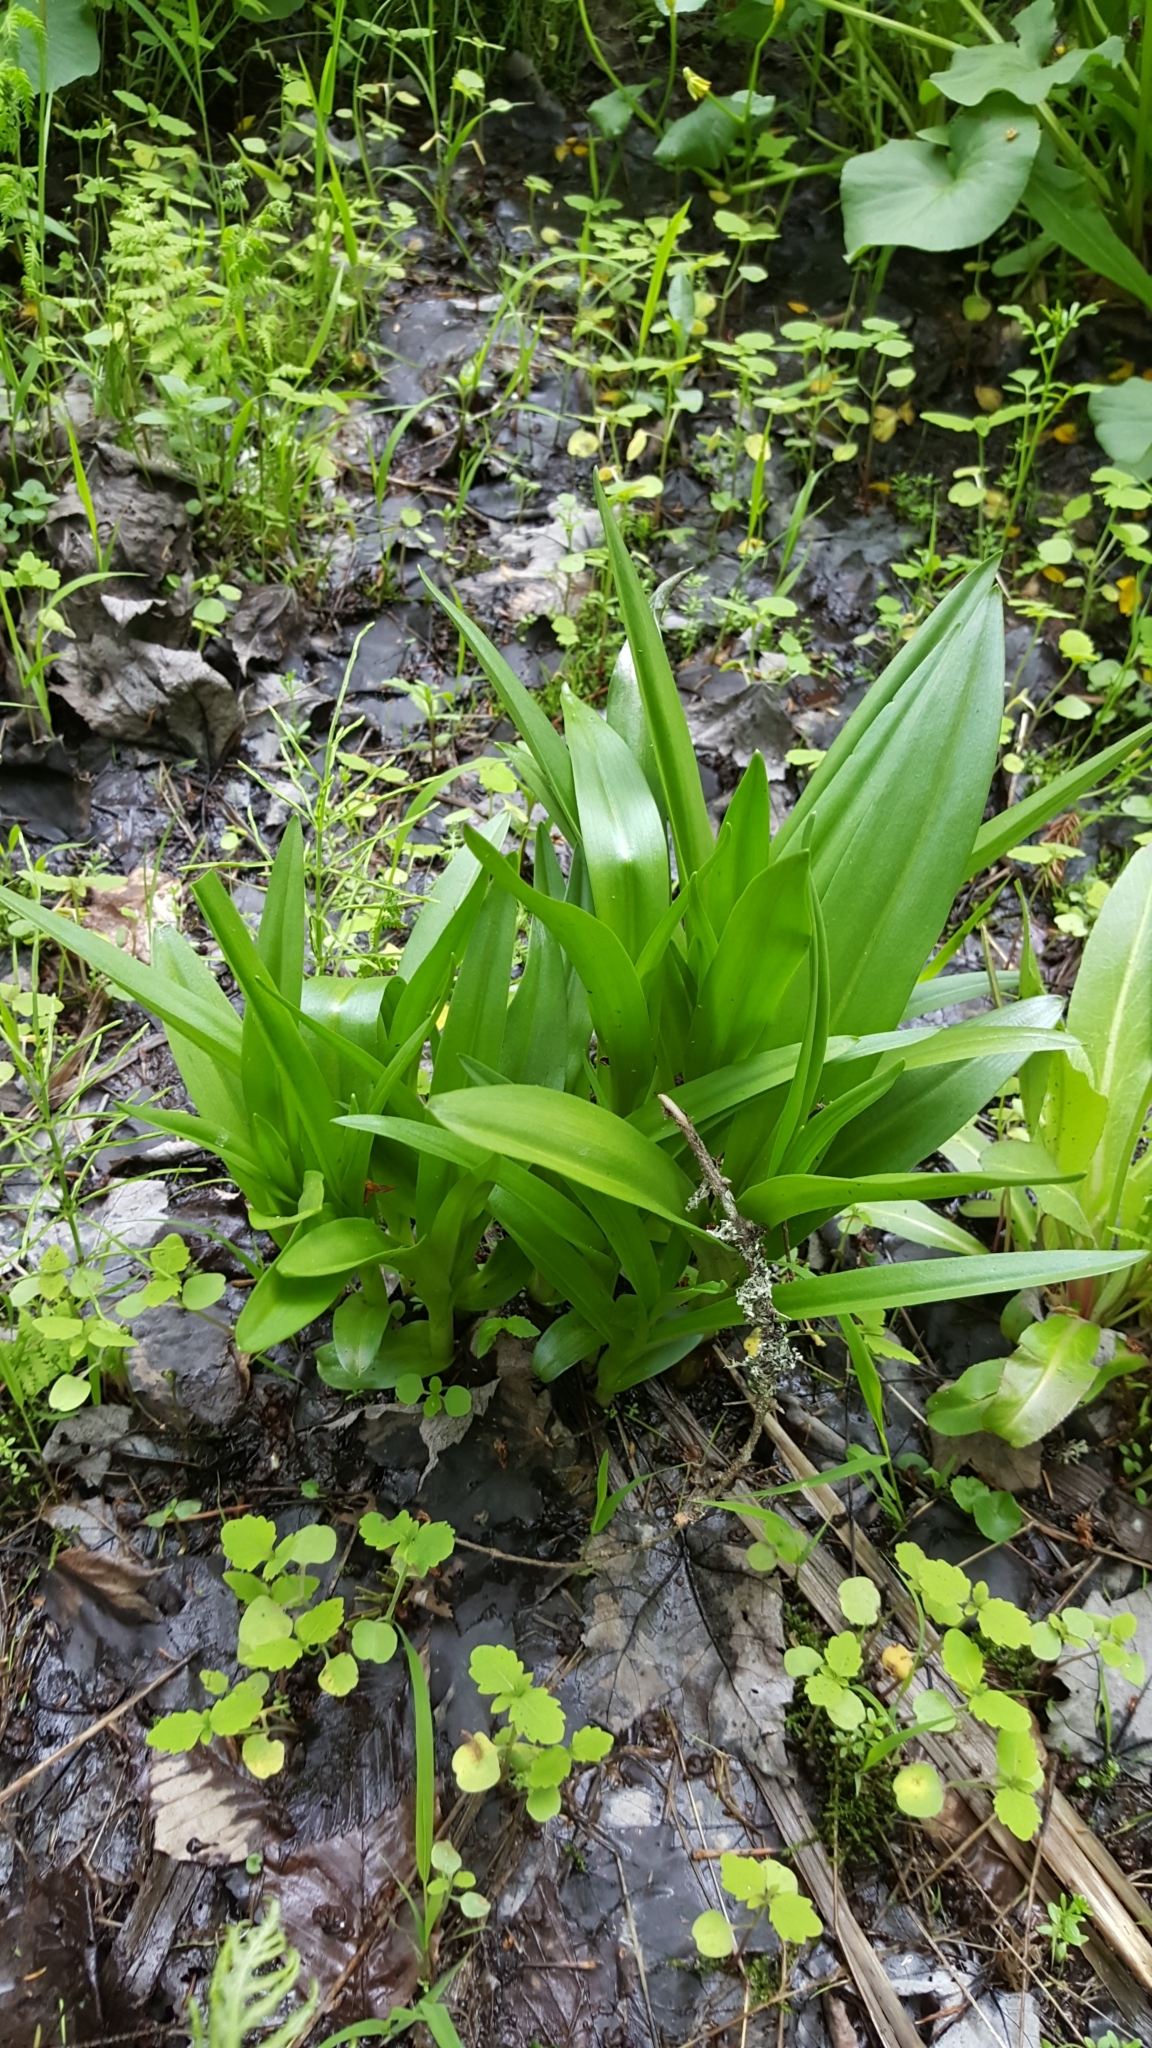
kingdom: Plantae
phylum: Tracheophyta
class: Magnoliopsida
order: Ericales
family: Balsaminaceae
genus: Impatiens
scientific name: Impatiens capensis
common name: Orange balsam
